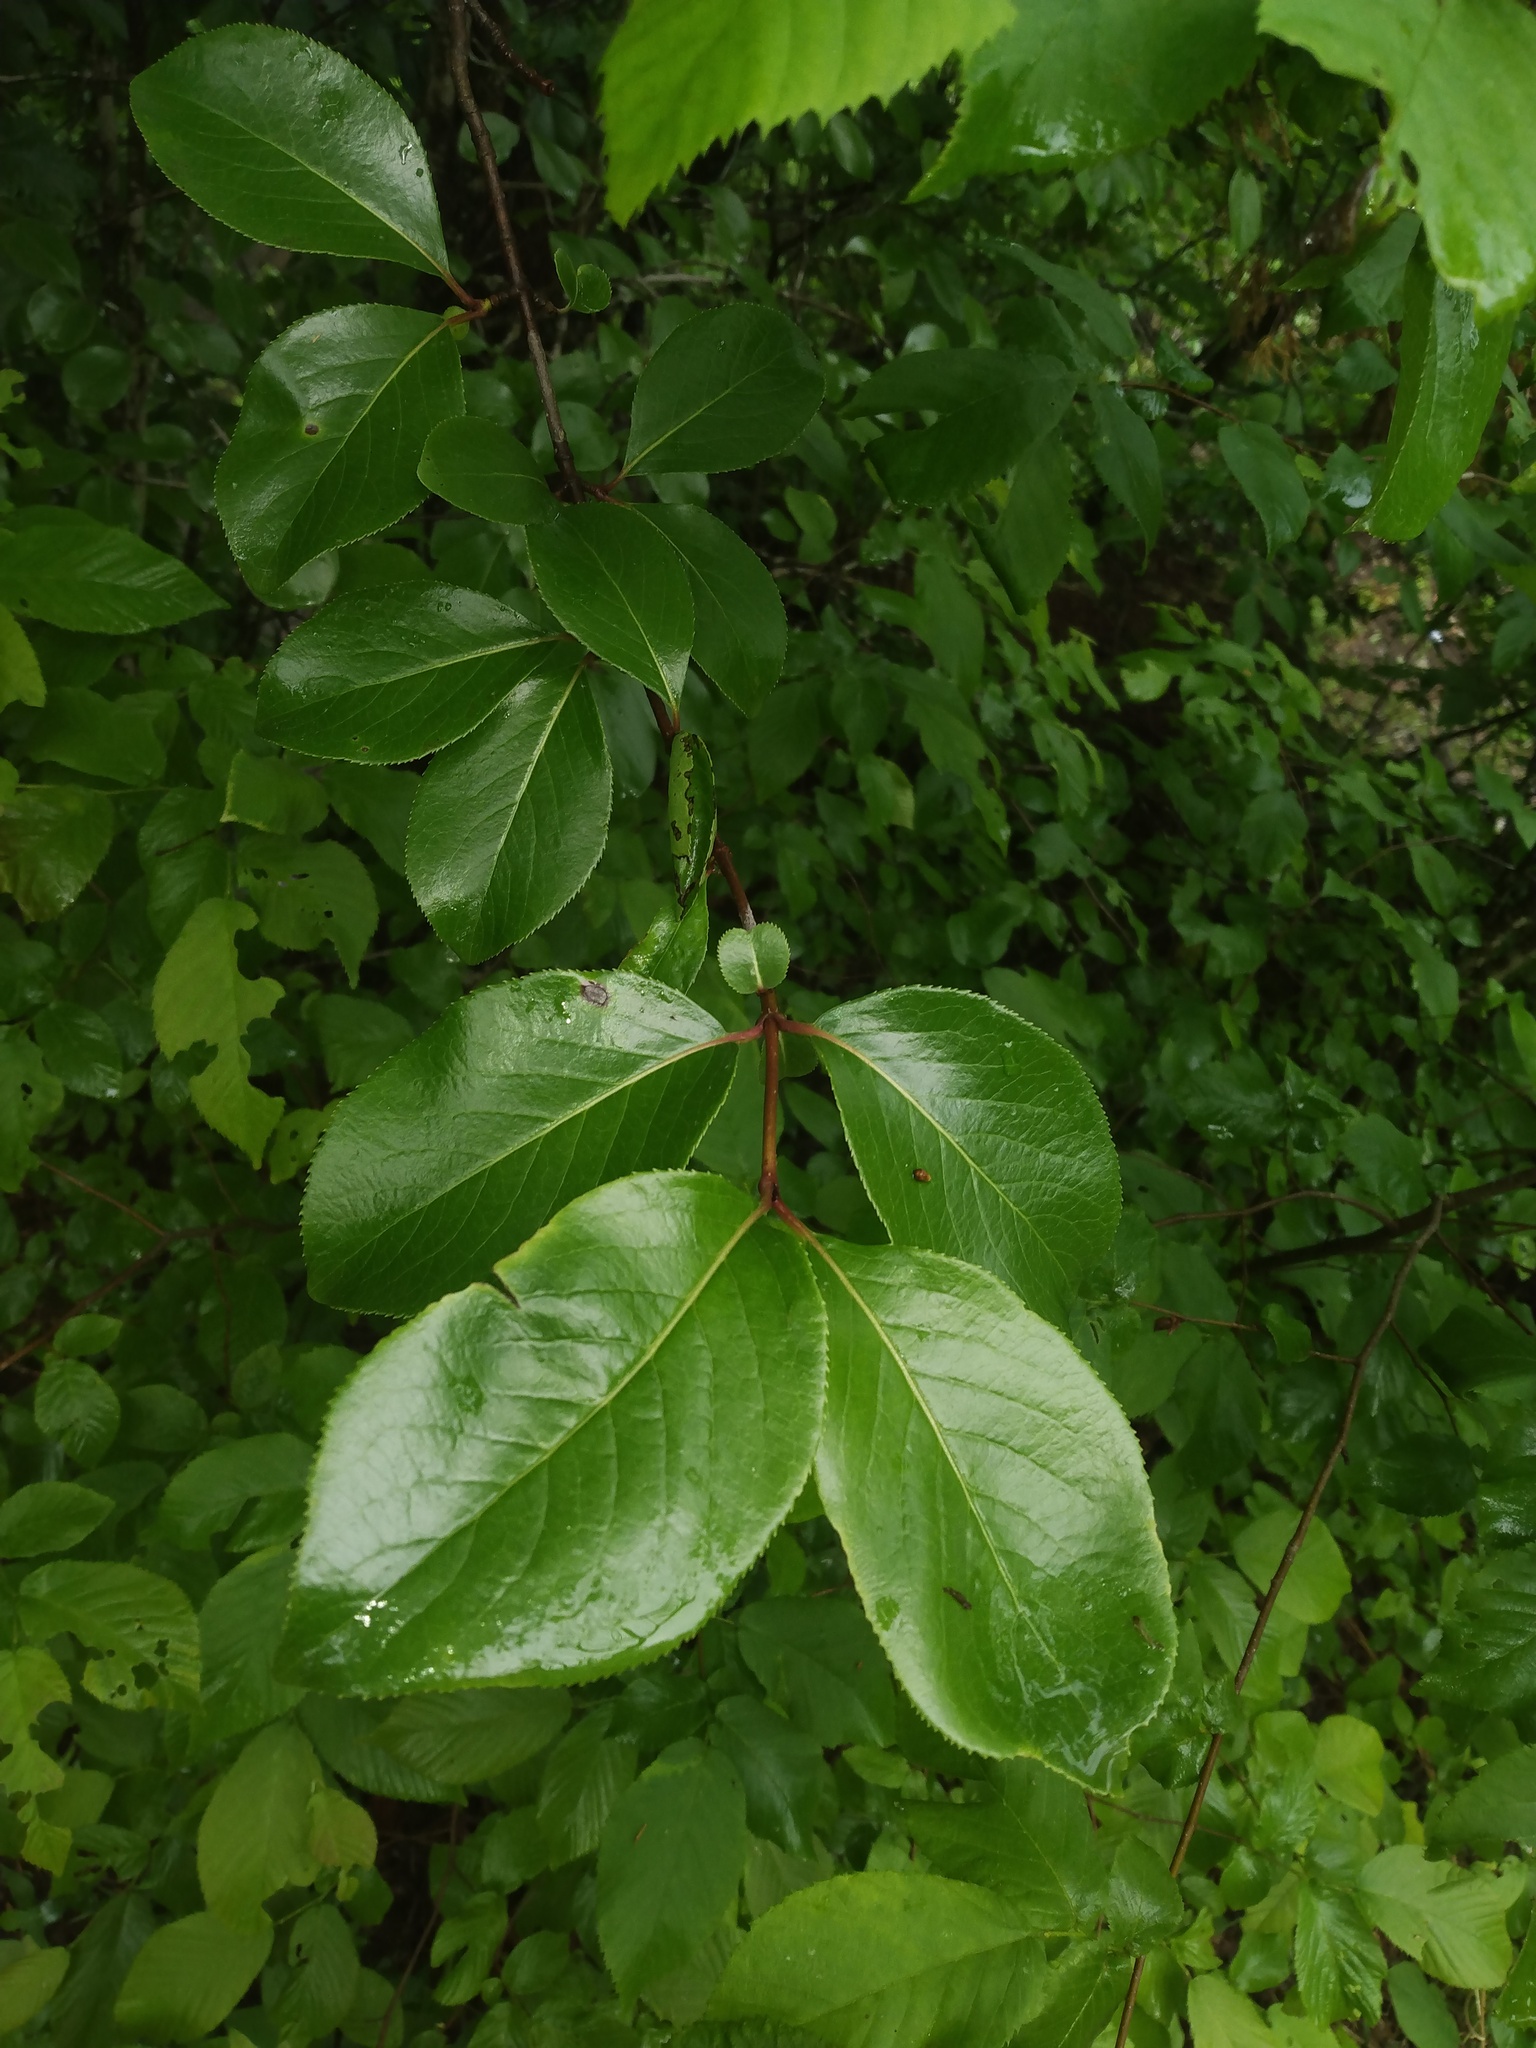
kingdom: Plantae
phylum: Tracheophyta
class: Magnoliopsida
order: Dipsacales
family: Viburnaceae
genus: Viburnum
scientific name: Viburnum rufidulum
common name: Blue haw
